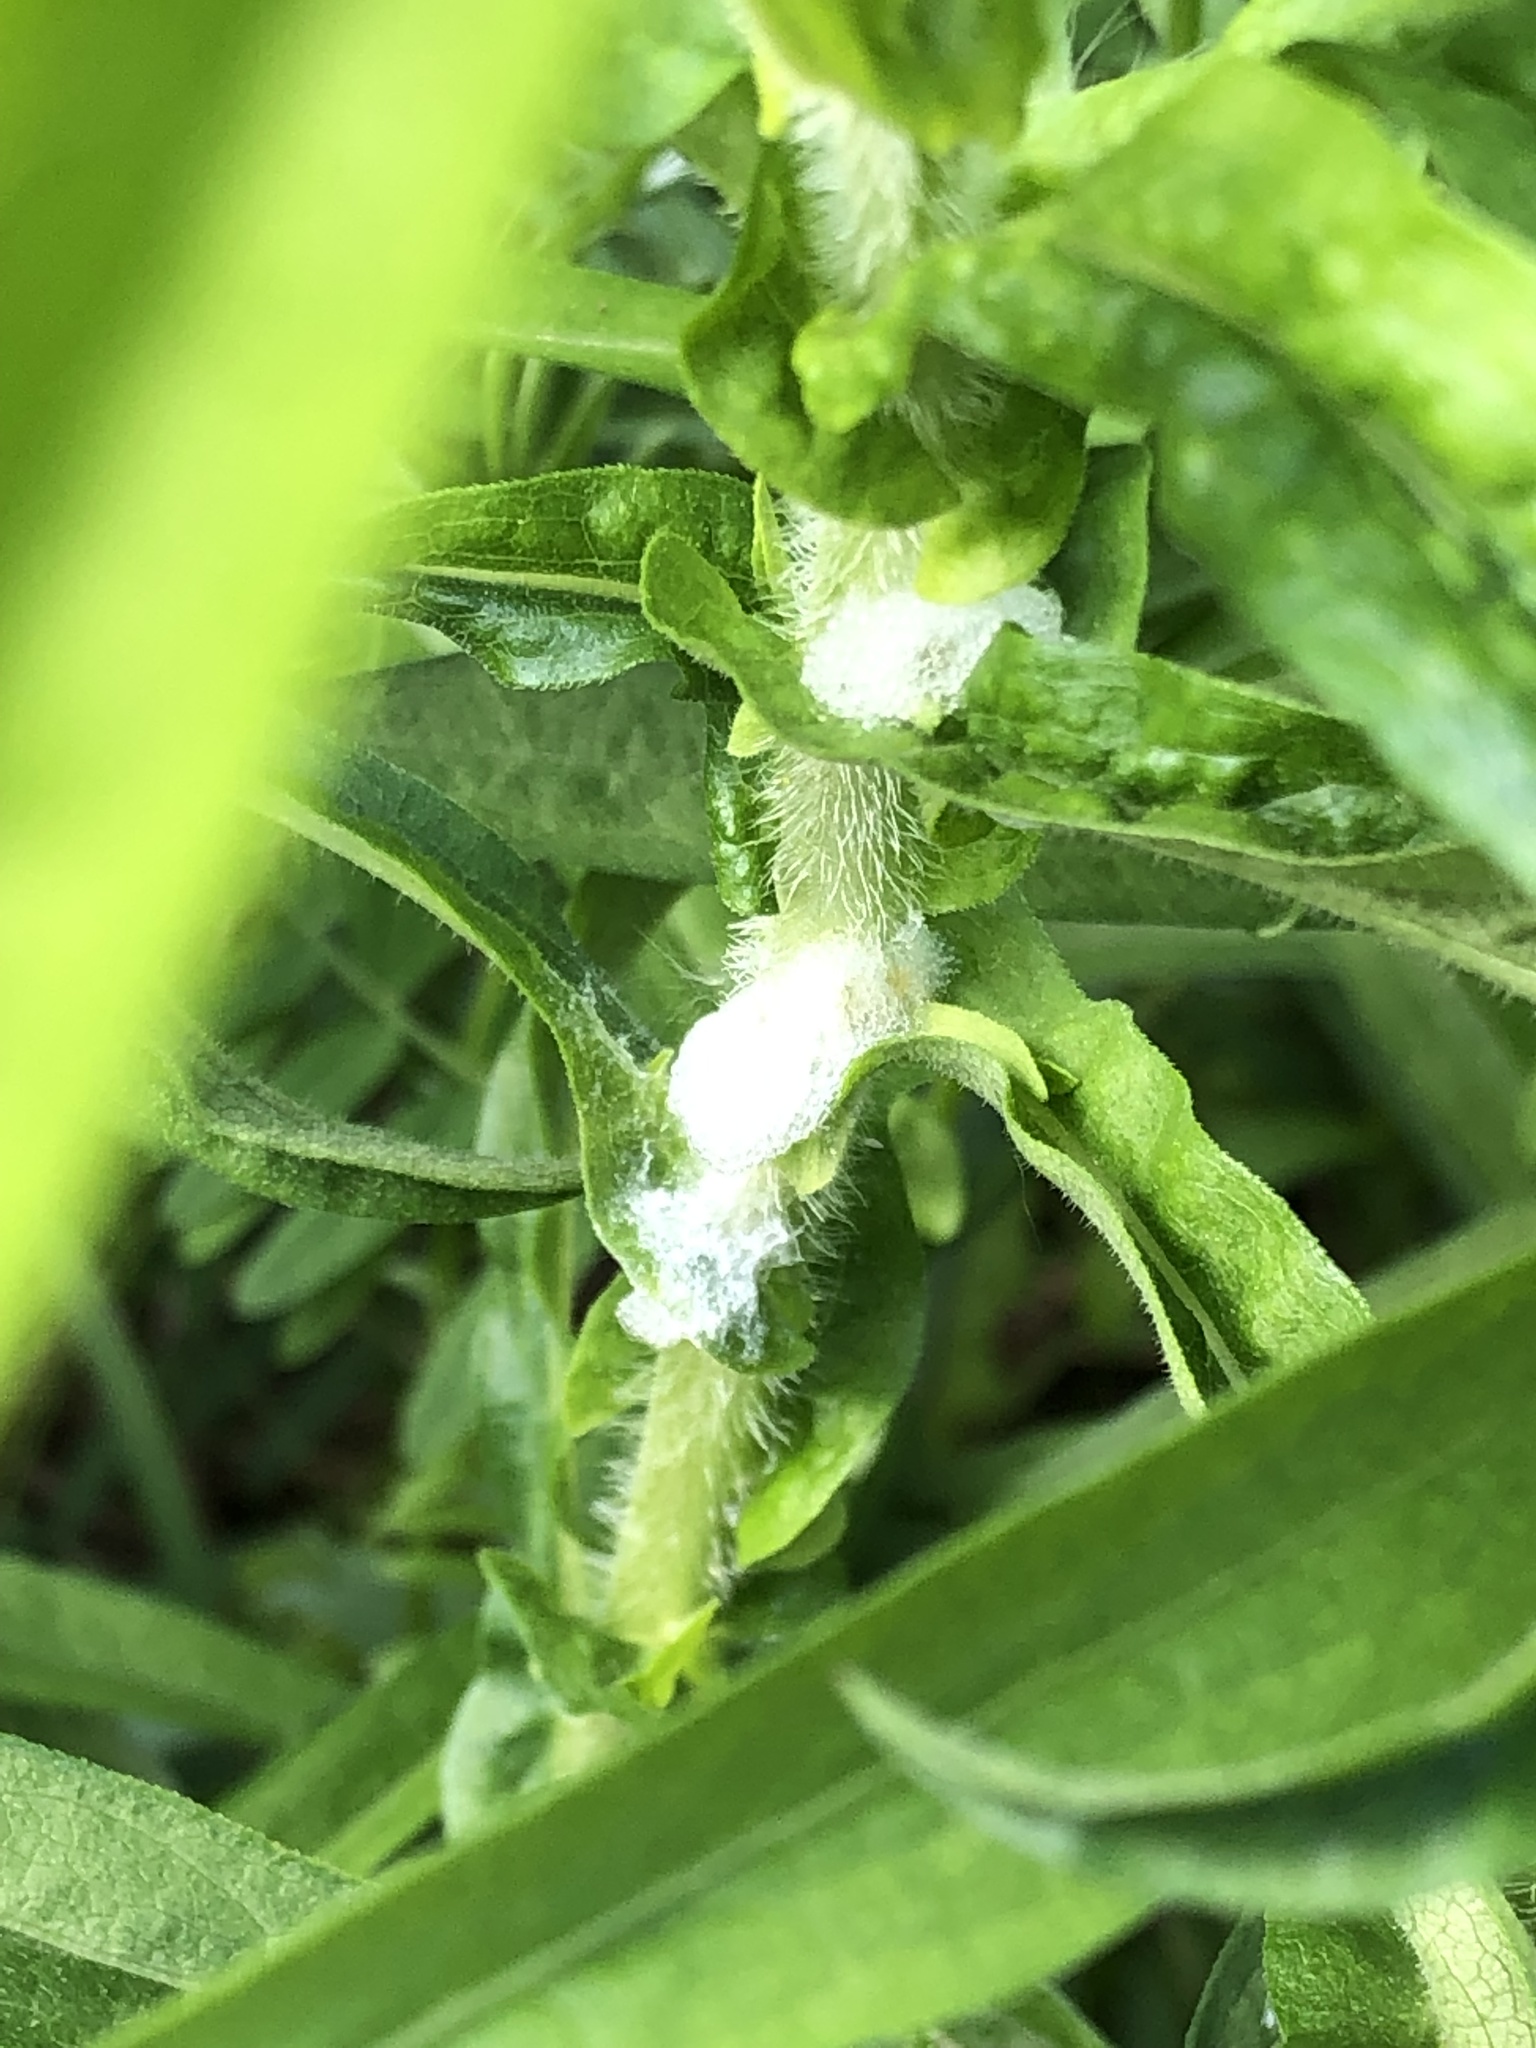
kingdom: Animalia
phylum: Arthropoda
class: Insecta
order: Hemiptera
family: Aphrophoridae
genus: Philaenus
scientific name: Philaenus spumarius
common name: Meadow spittlebug
